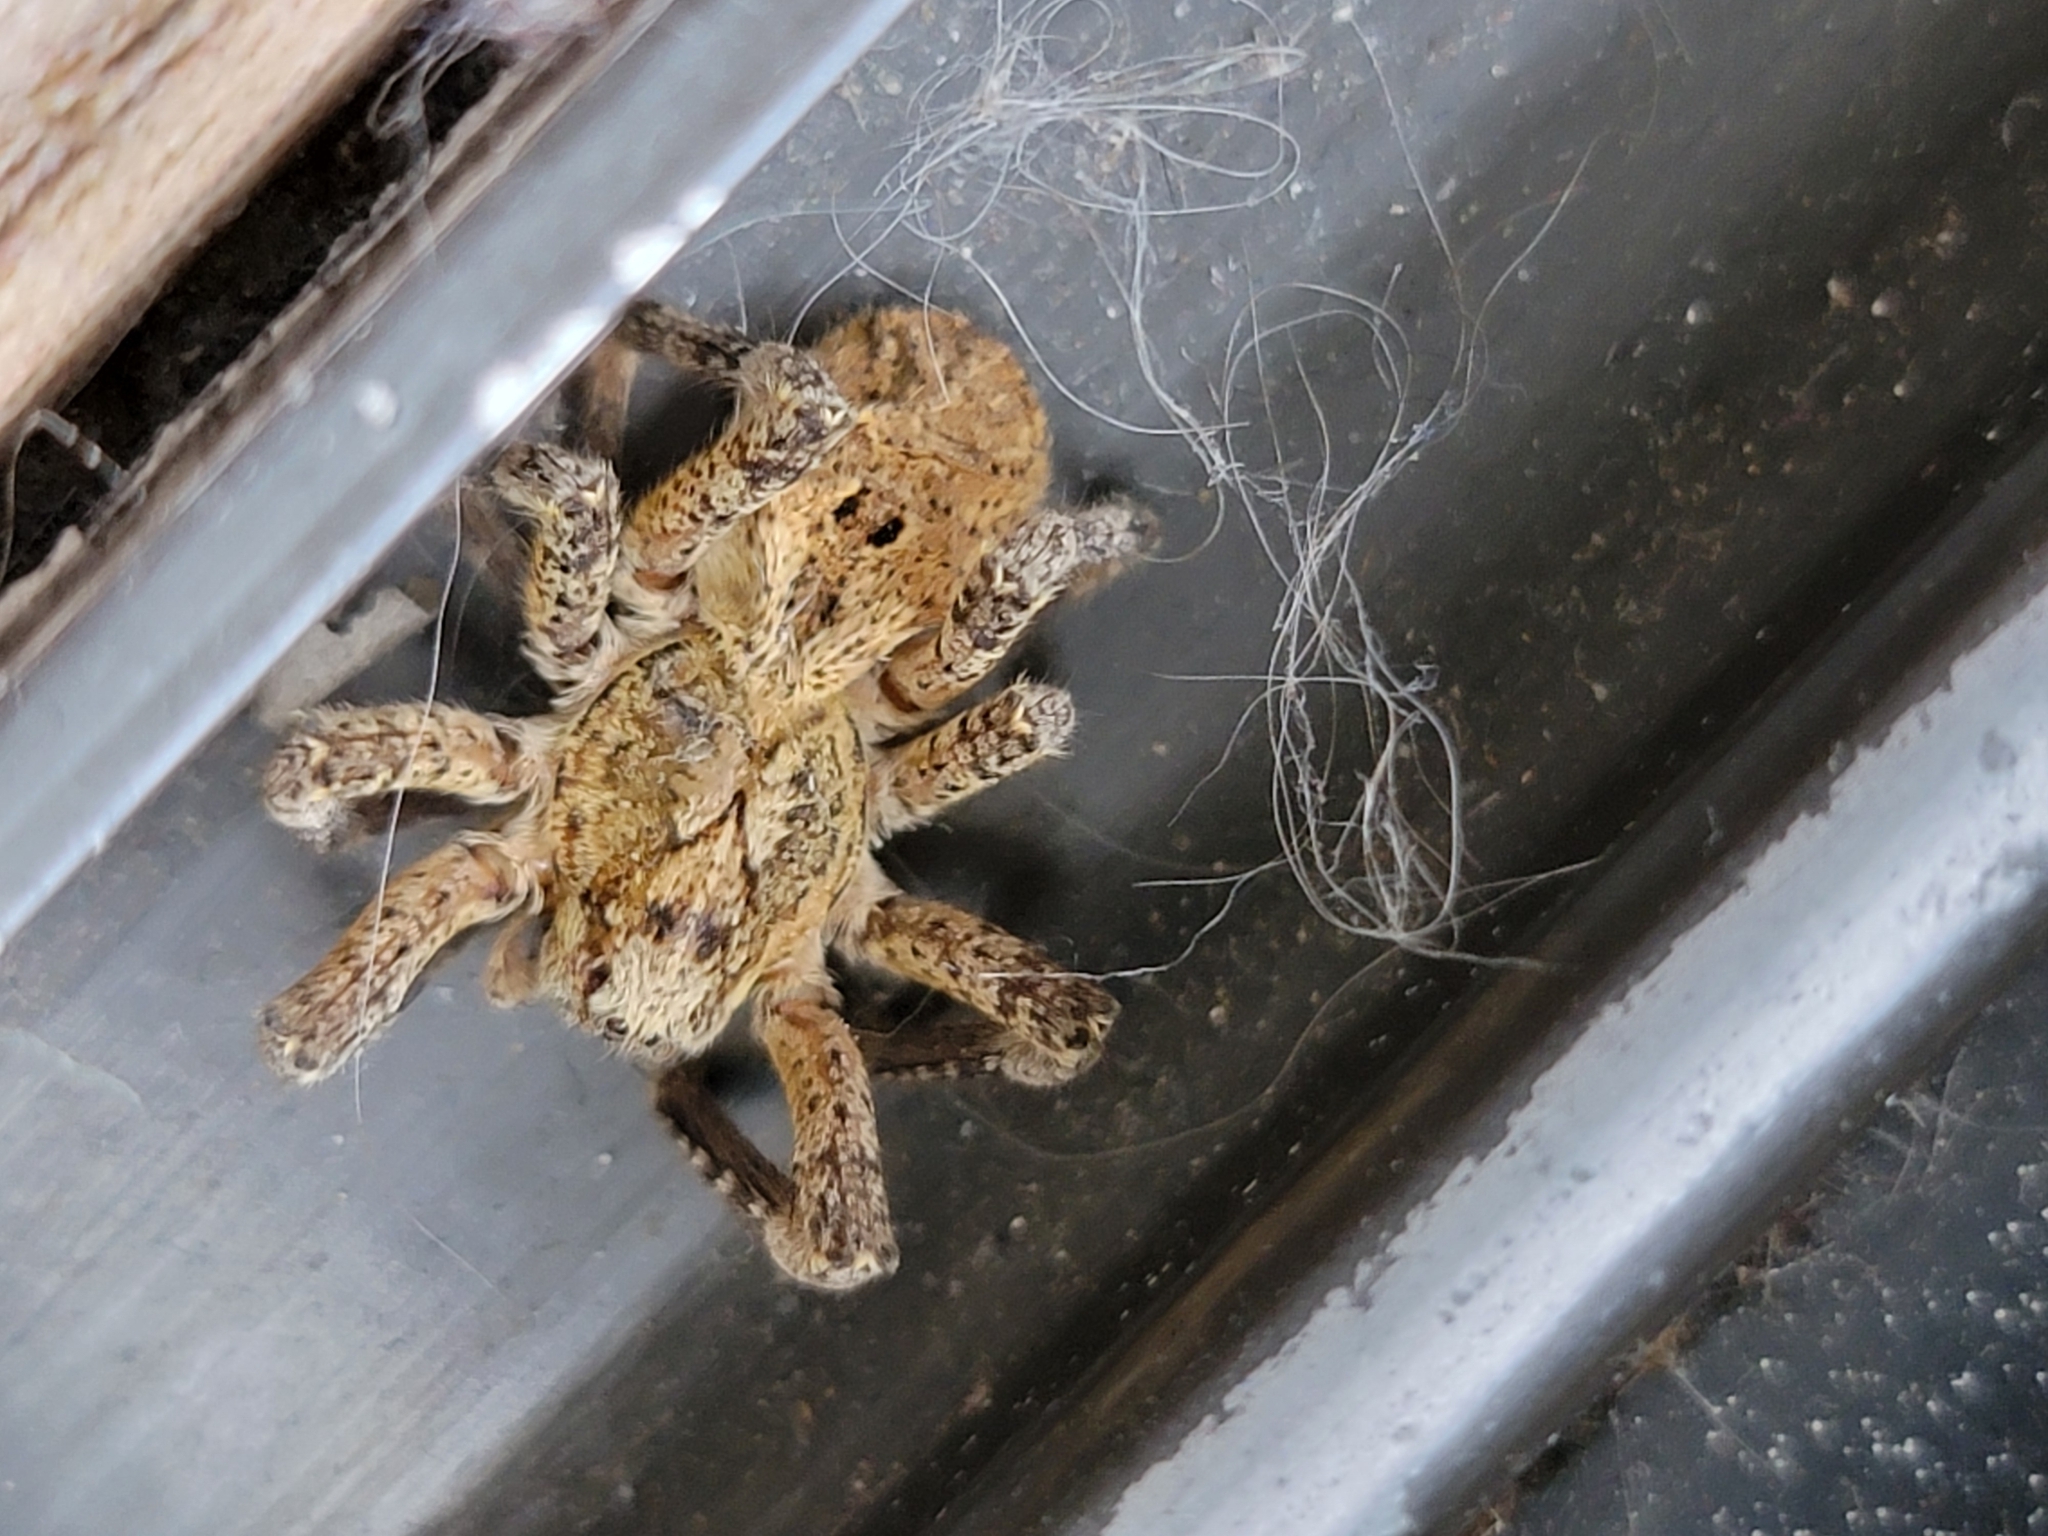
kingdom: Animalia
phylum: Arthropoda
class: Arachnida
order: Araneae
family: Zoropsidae
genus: Zoropsis
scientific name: Zoropsis spinimana
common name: Zoropsid spider
